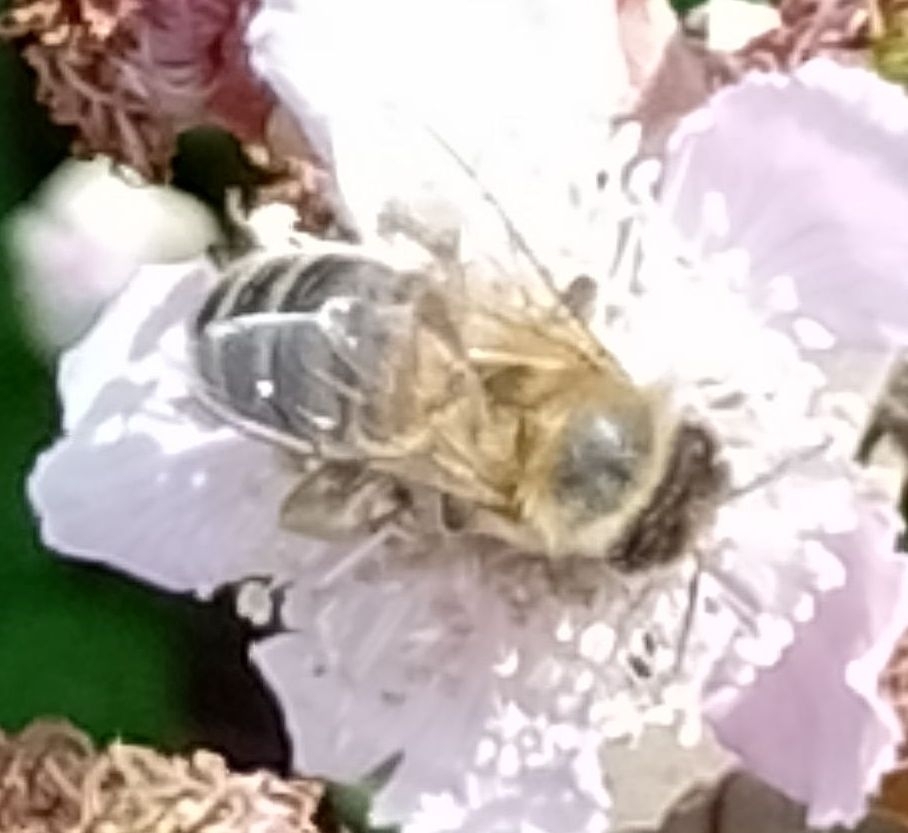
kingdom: Animalia
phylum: Arthropoda
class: Insecta
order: Hymenoptera
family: Apidae
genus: Apis
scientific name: Apis mellifera
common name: Honey bee
